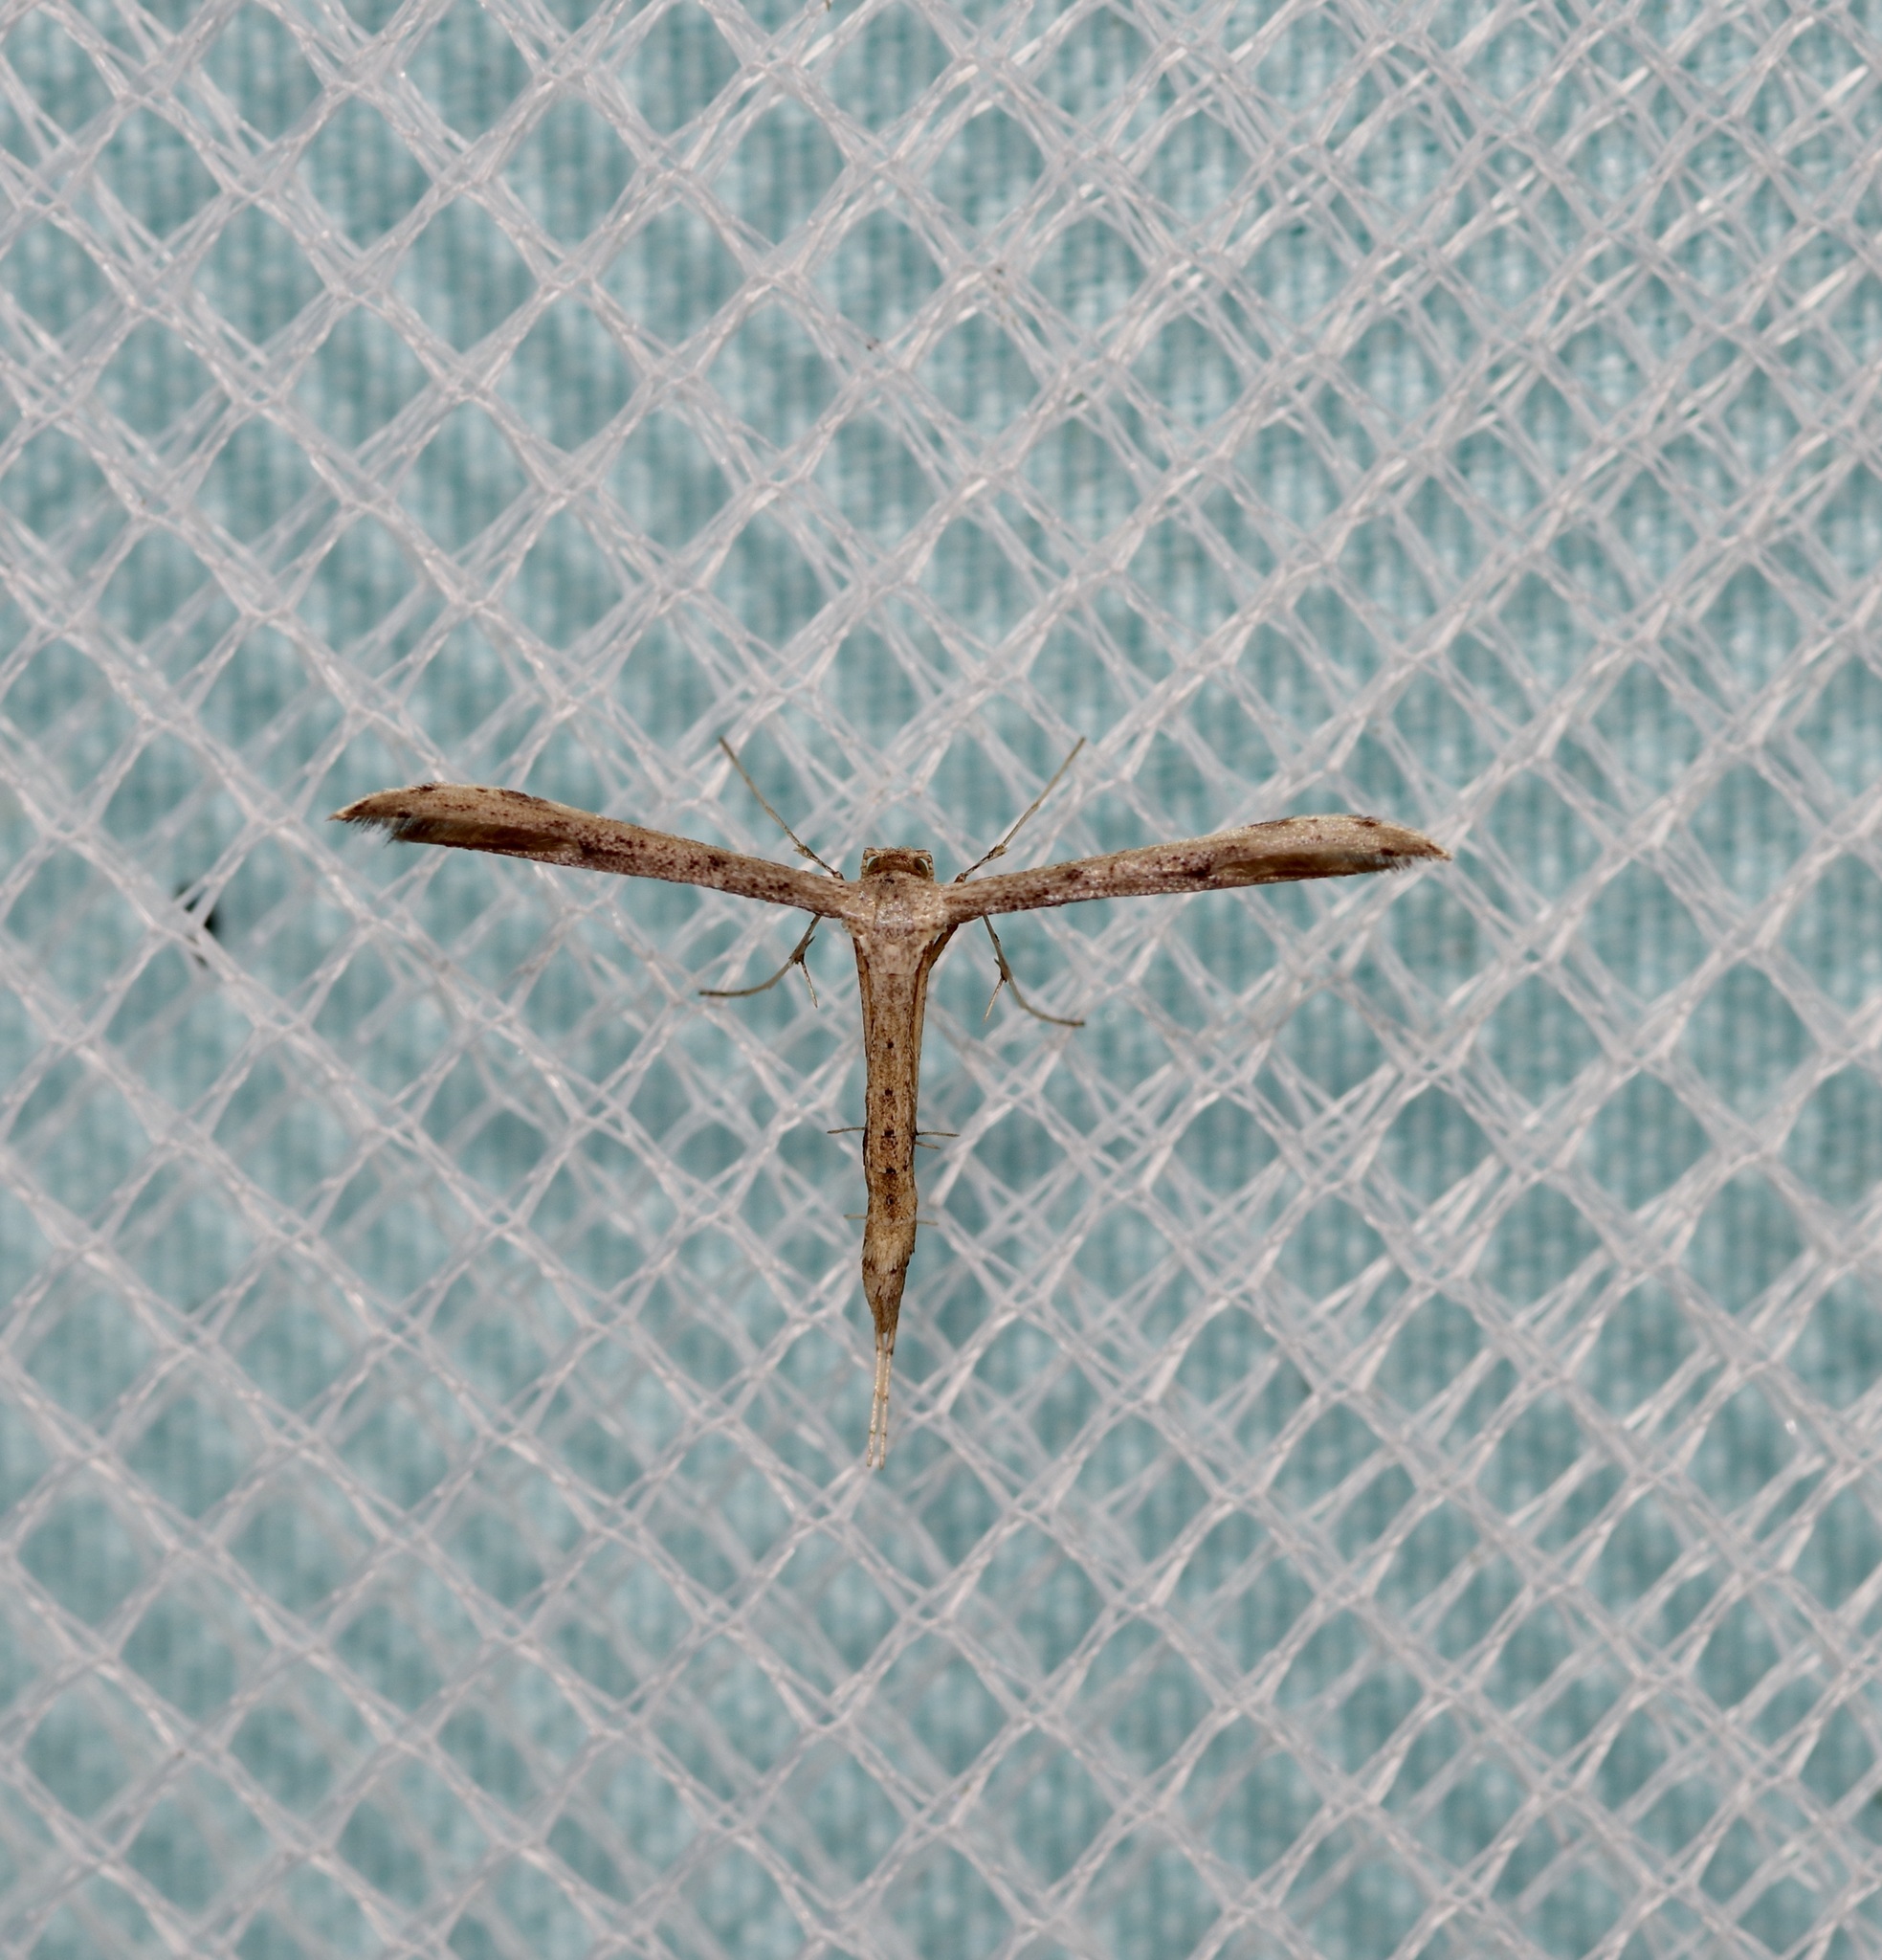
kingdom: Animalia
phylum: Arthropoda
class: Insecta
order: Lepidoptera
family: Pterophoridae
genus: Adaina
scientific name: Adaina ambrosiae
